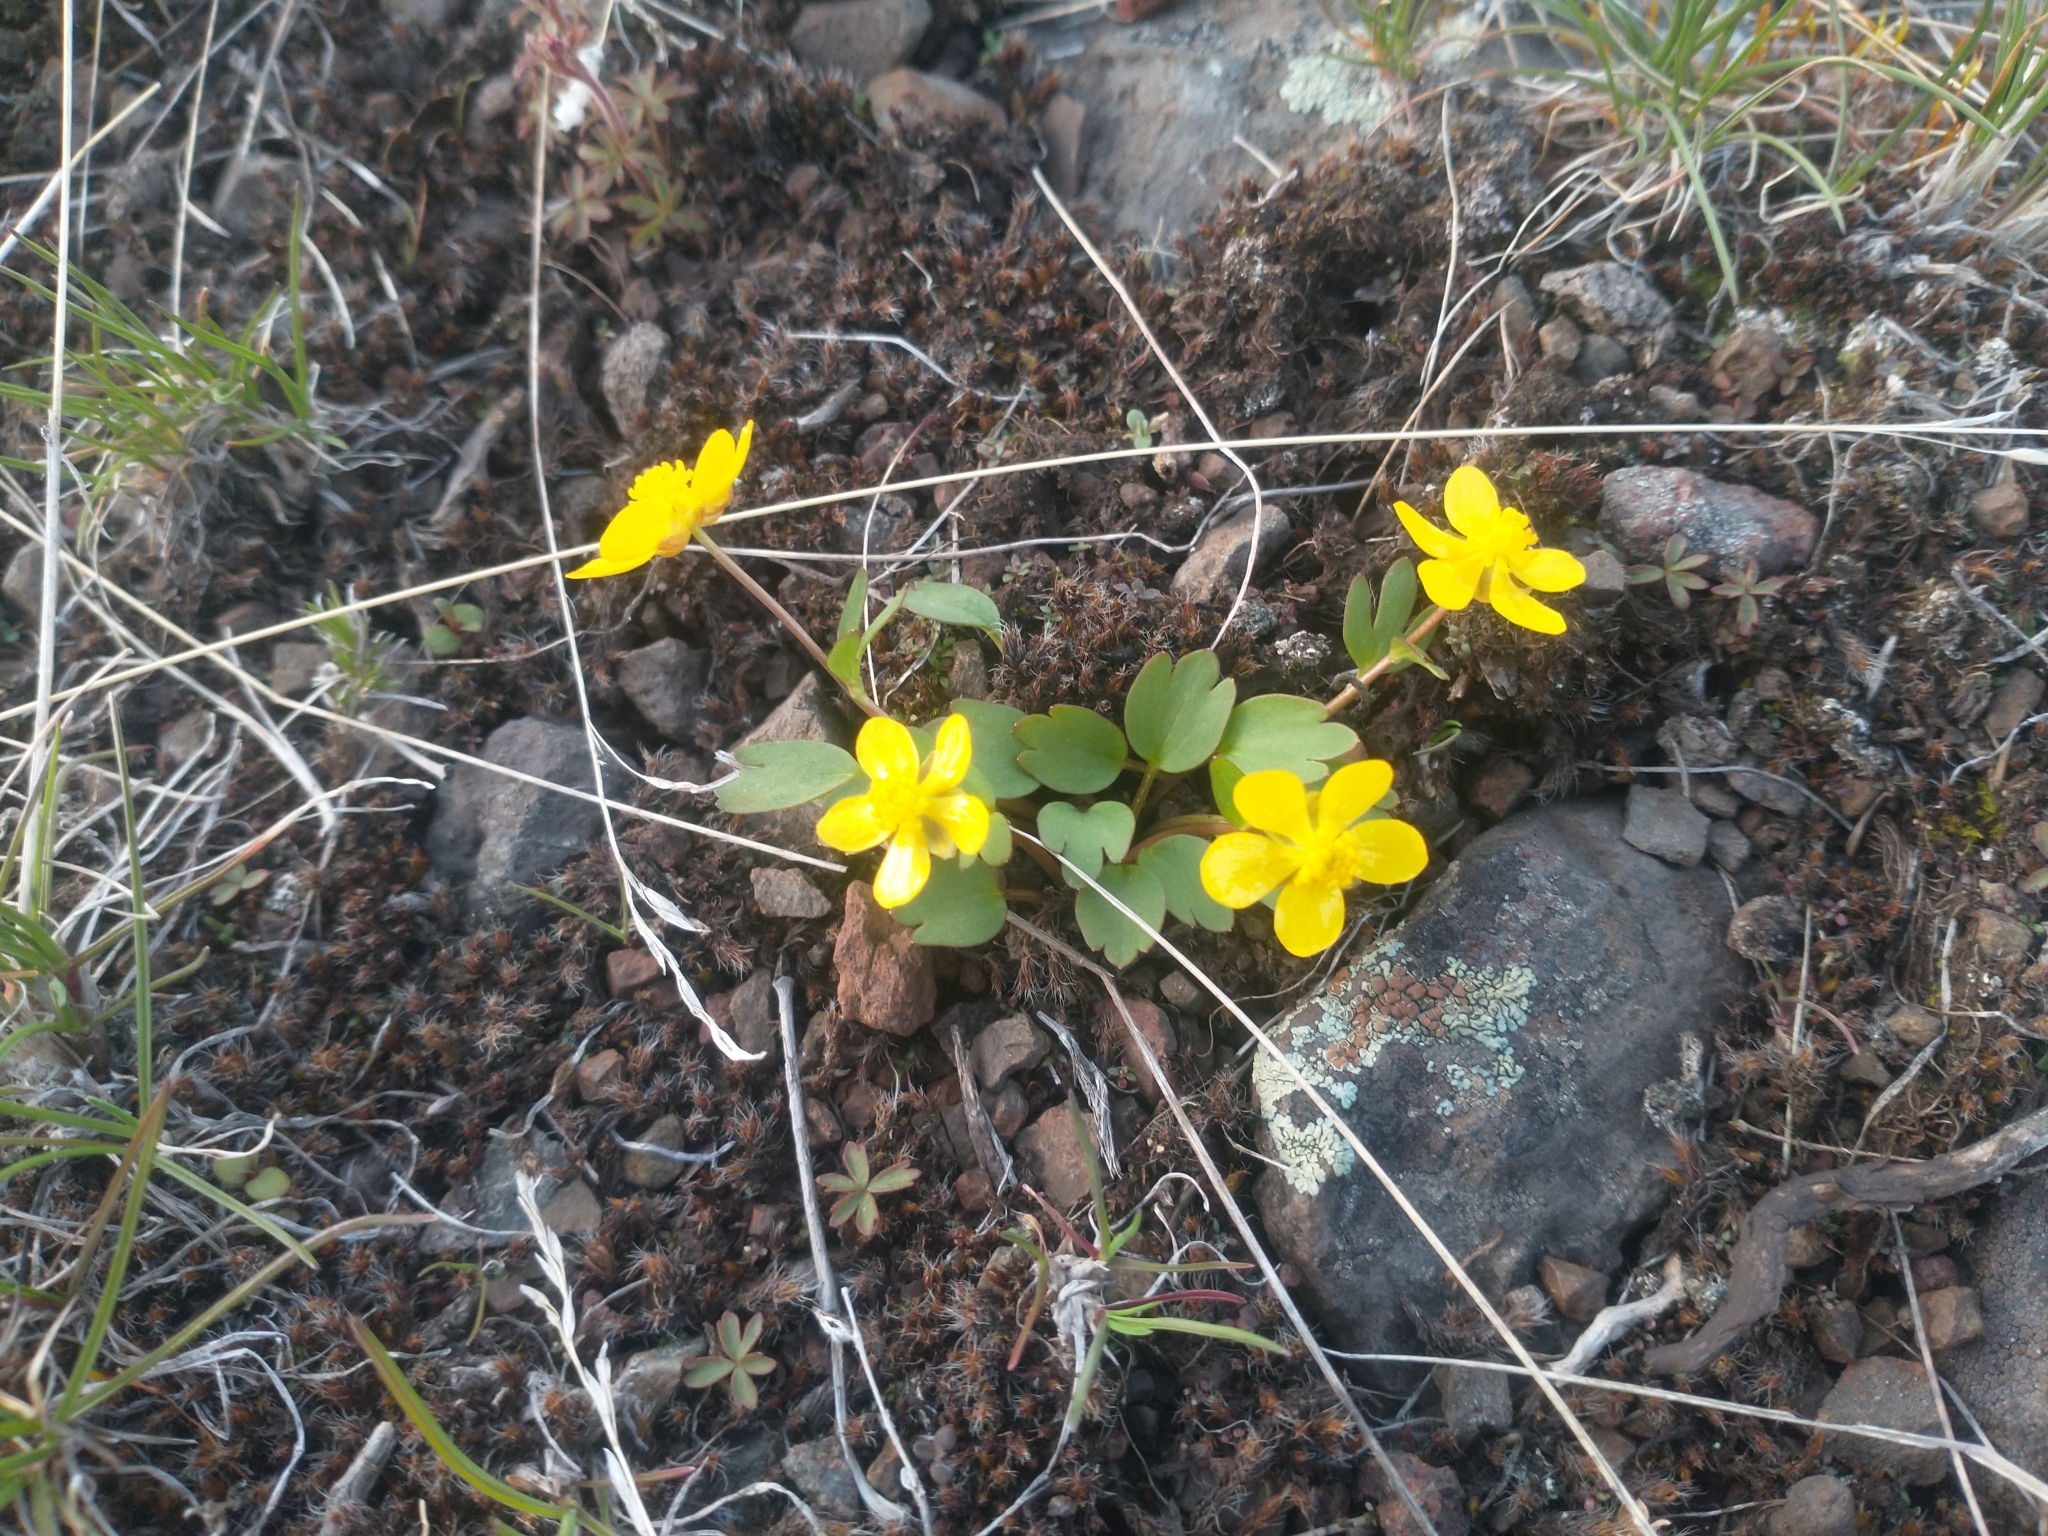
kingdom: Plantae
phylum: Tracheophyta
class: Magnoliopsida
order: Ranunculales
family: Ranunculaceae
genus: Ranunculus
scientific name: Ranunculus glaberrimus
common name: Sagebrush buttercup
